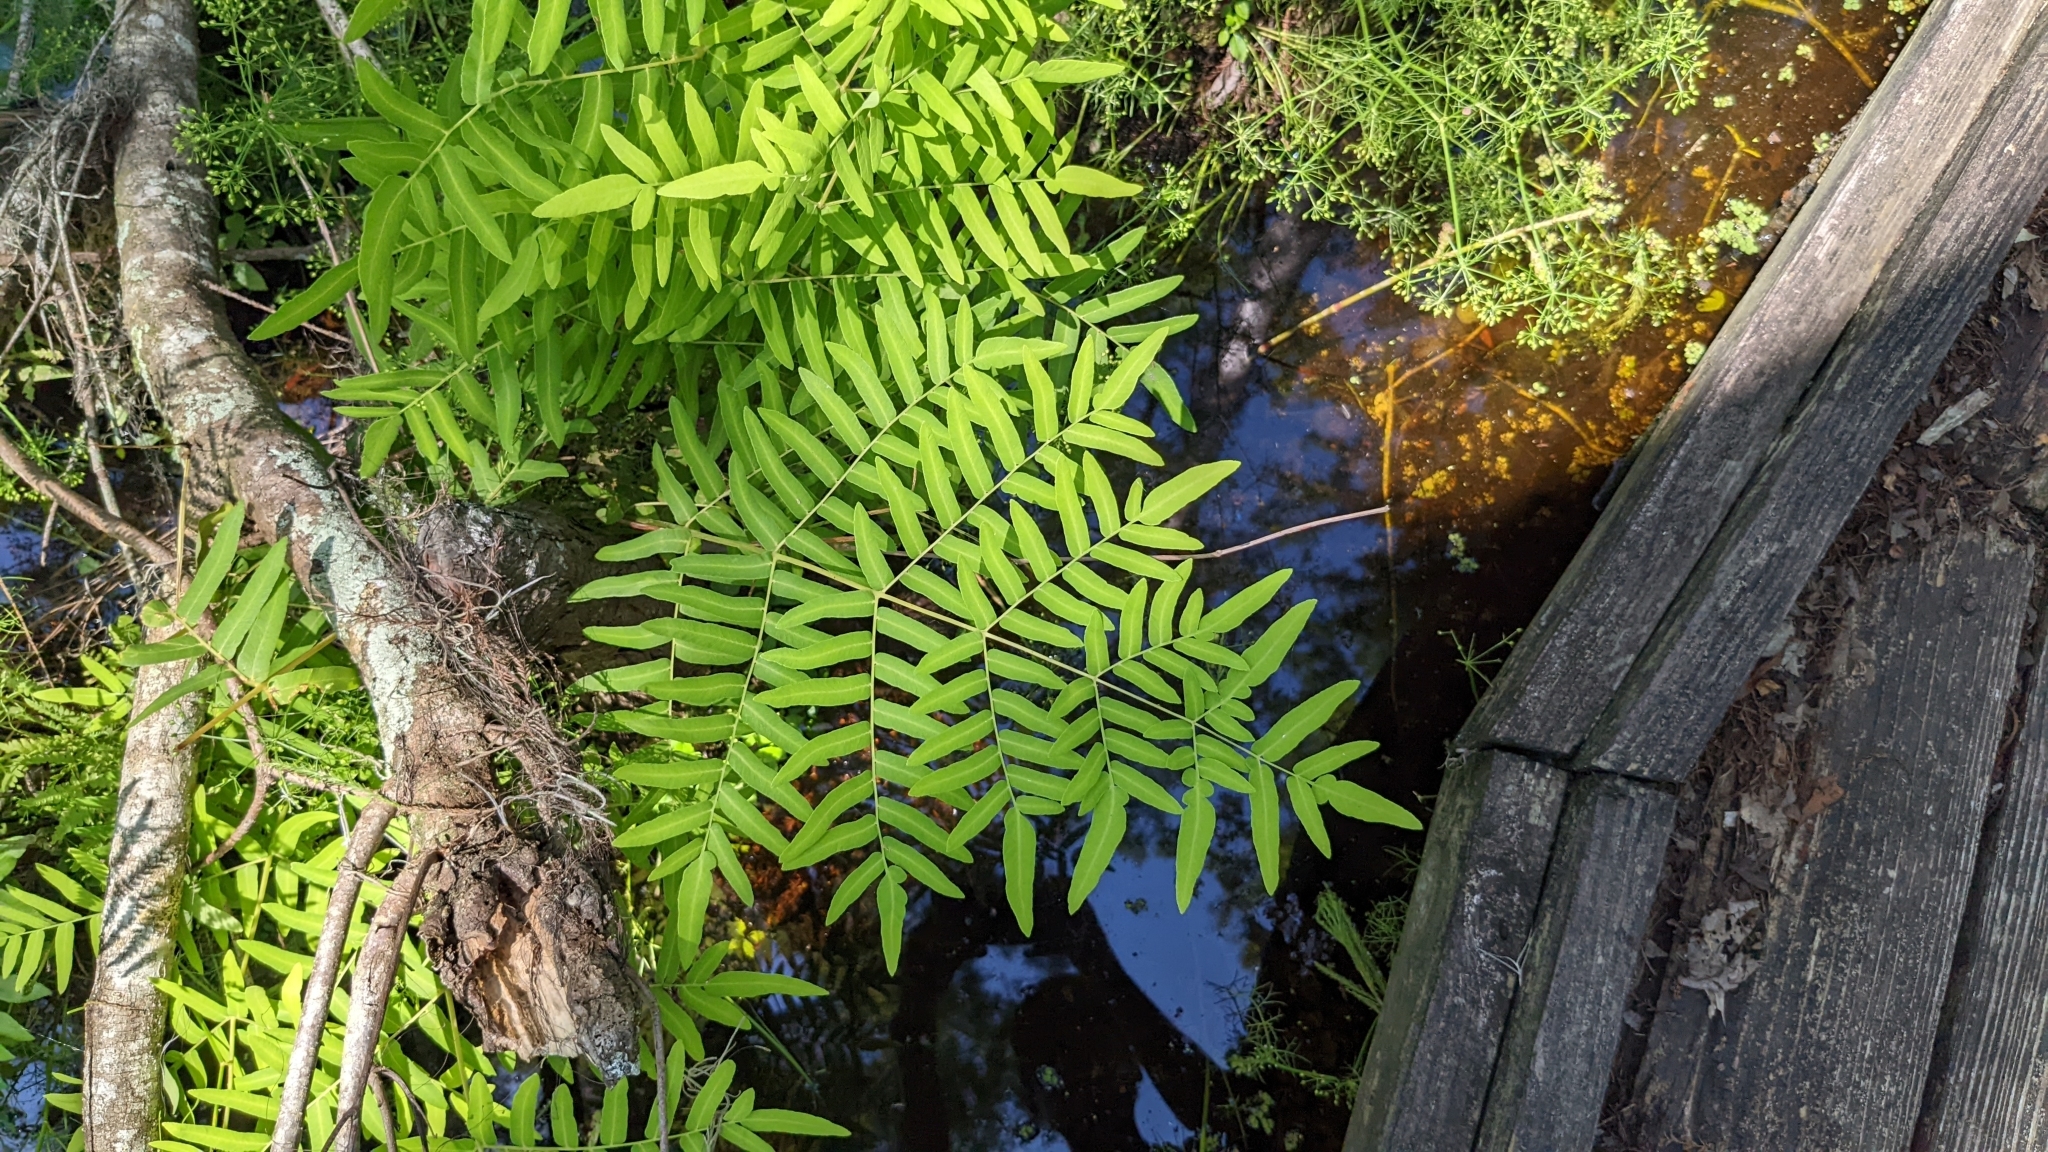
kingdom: Plantae
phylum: Tracheophyta
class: Polypodiopsida
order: Osmundales
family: Osmundaceae
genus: Osmunda
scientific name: Osmunda spectabilis
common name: American royal fern
